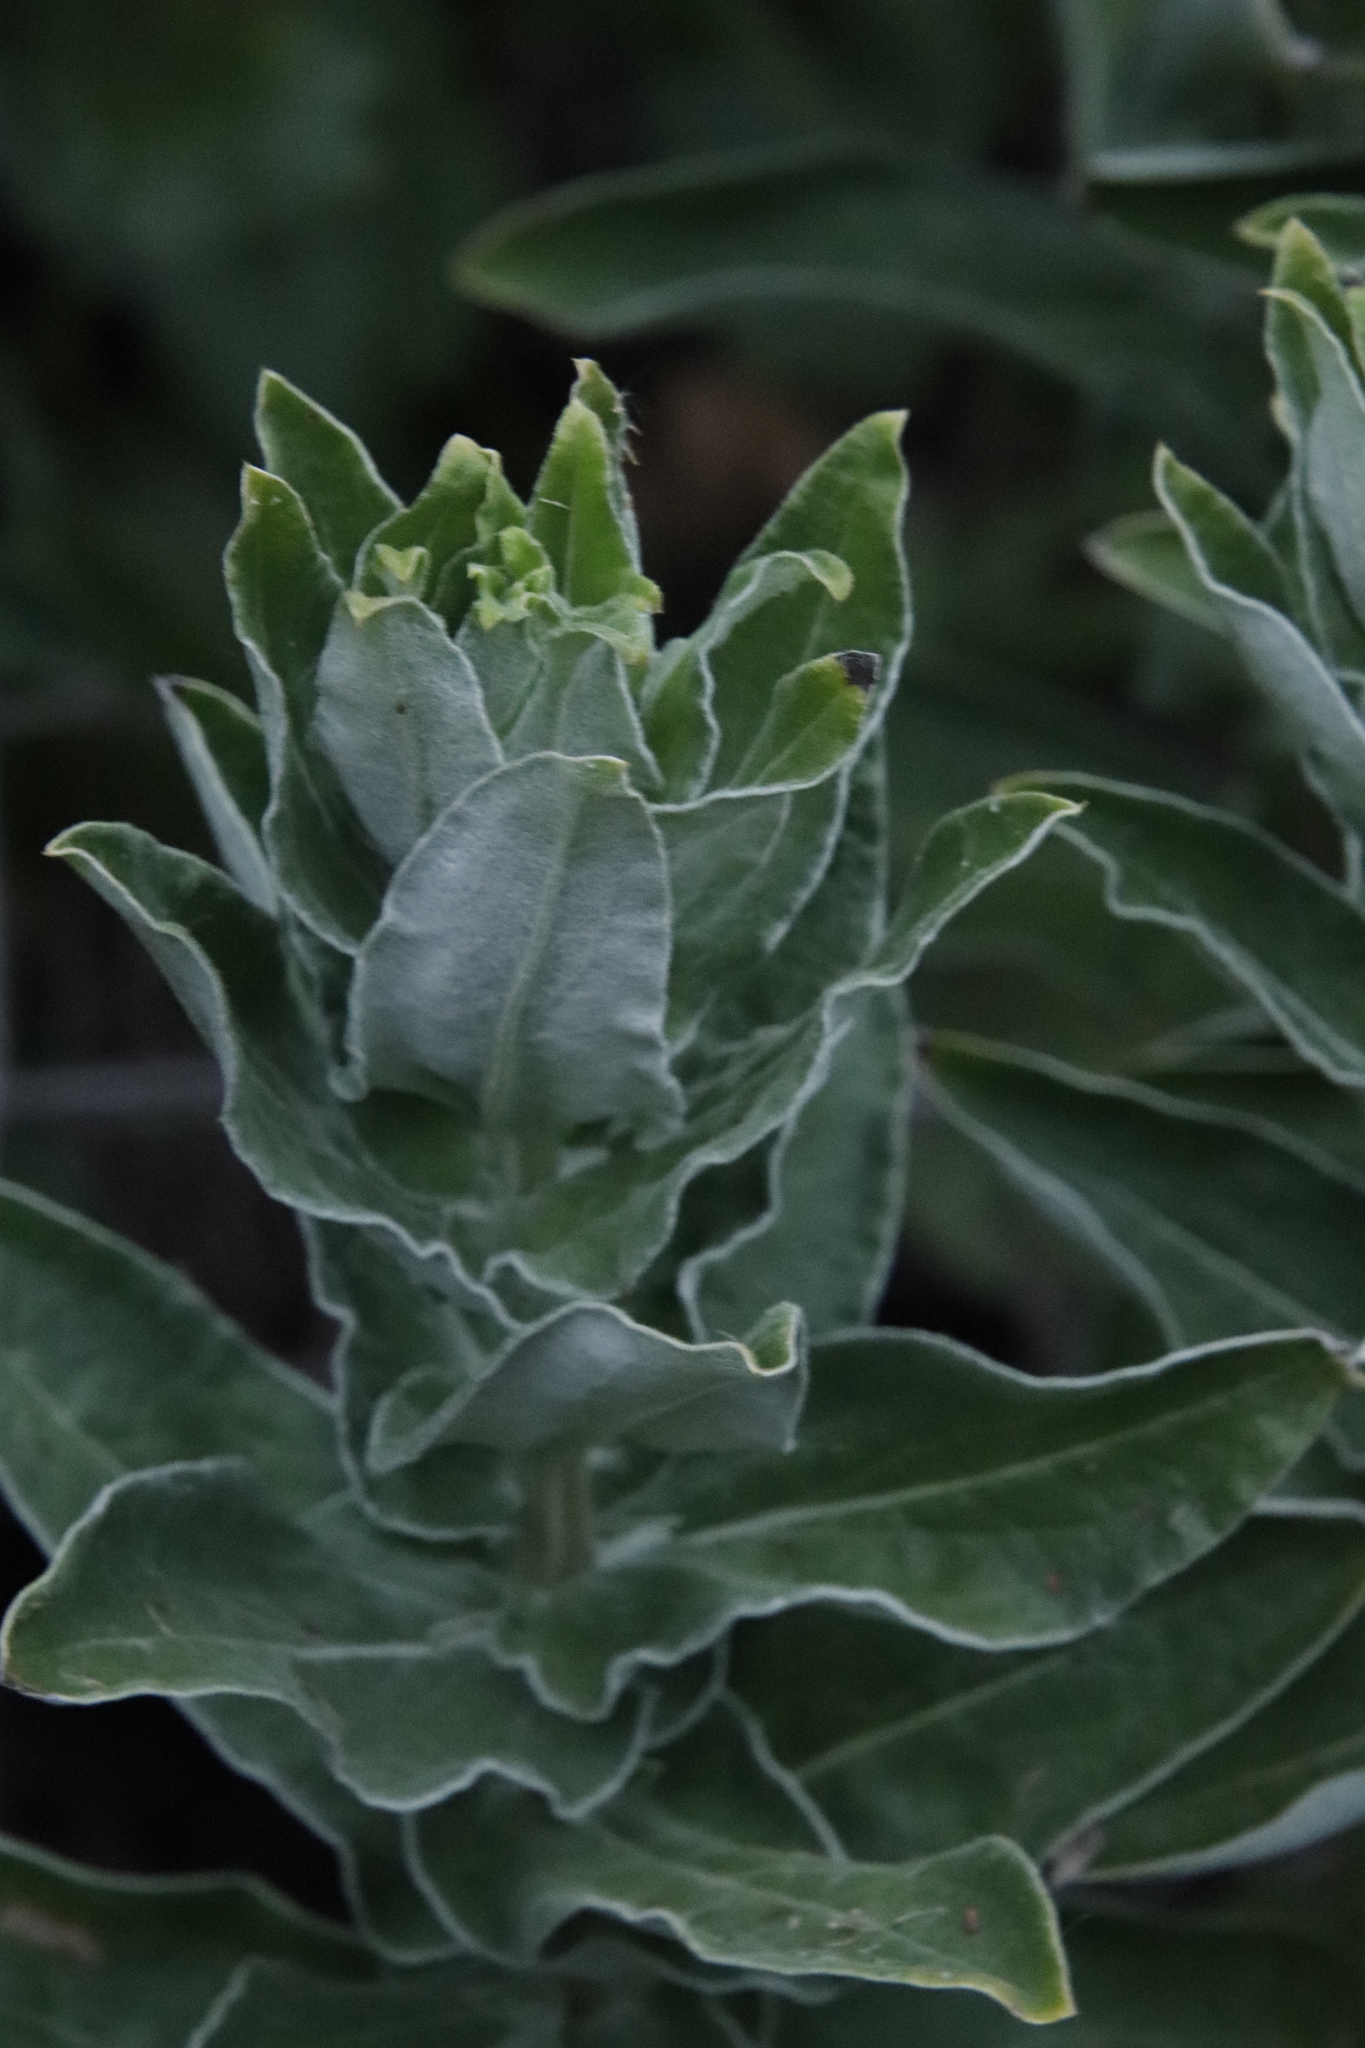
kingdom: Plantae
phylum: Tracheophyta
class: Magnoliopsida
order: Asterales
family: Asteraceae
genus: Helichrysum
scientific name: Helichrysum foetidum
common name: Stinking everlasting
